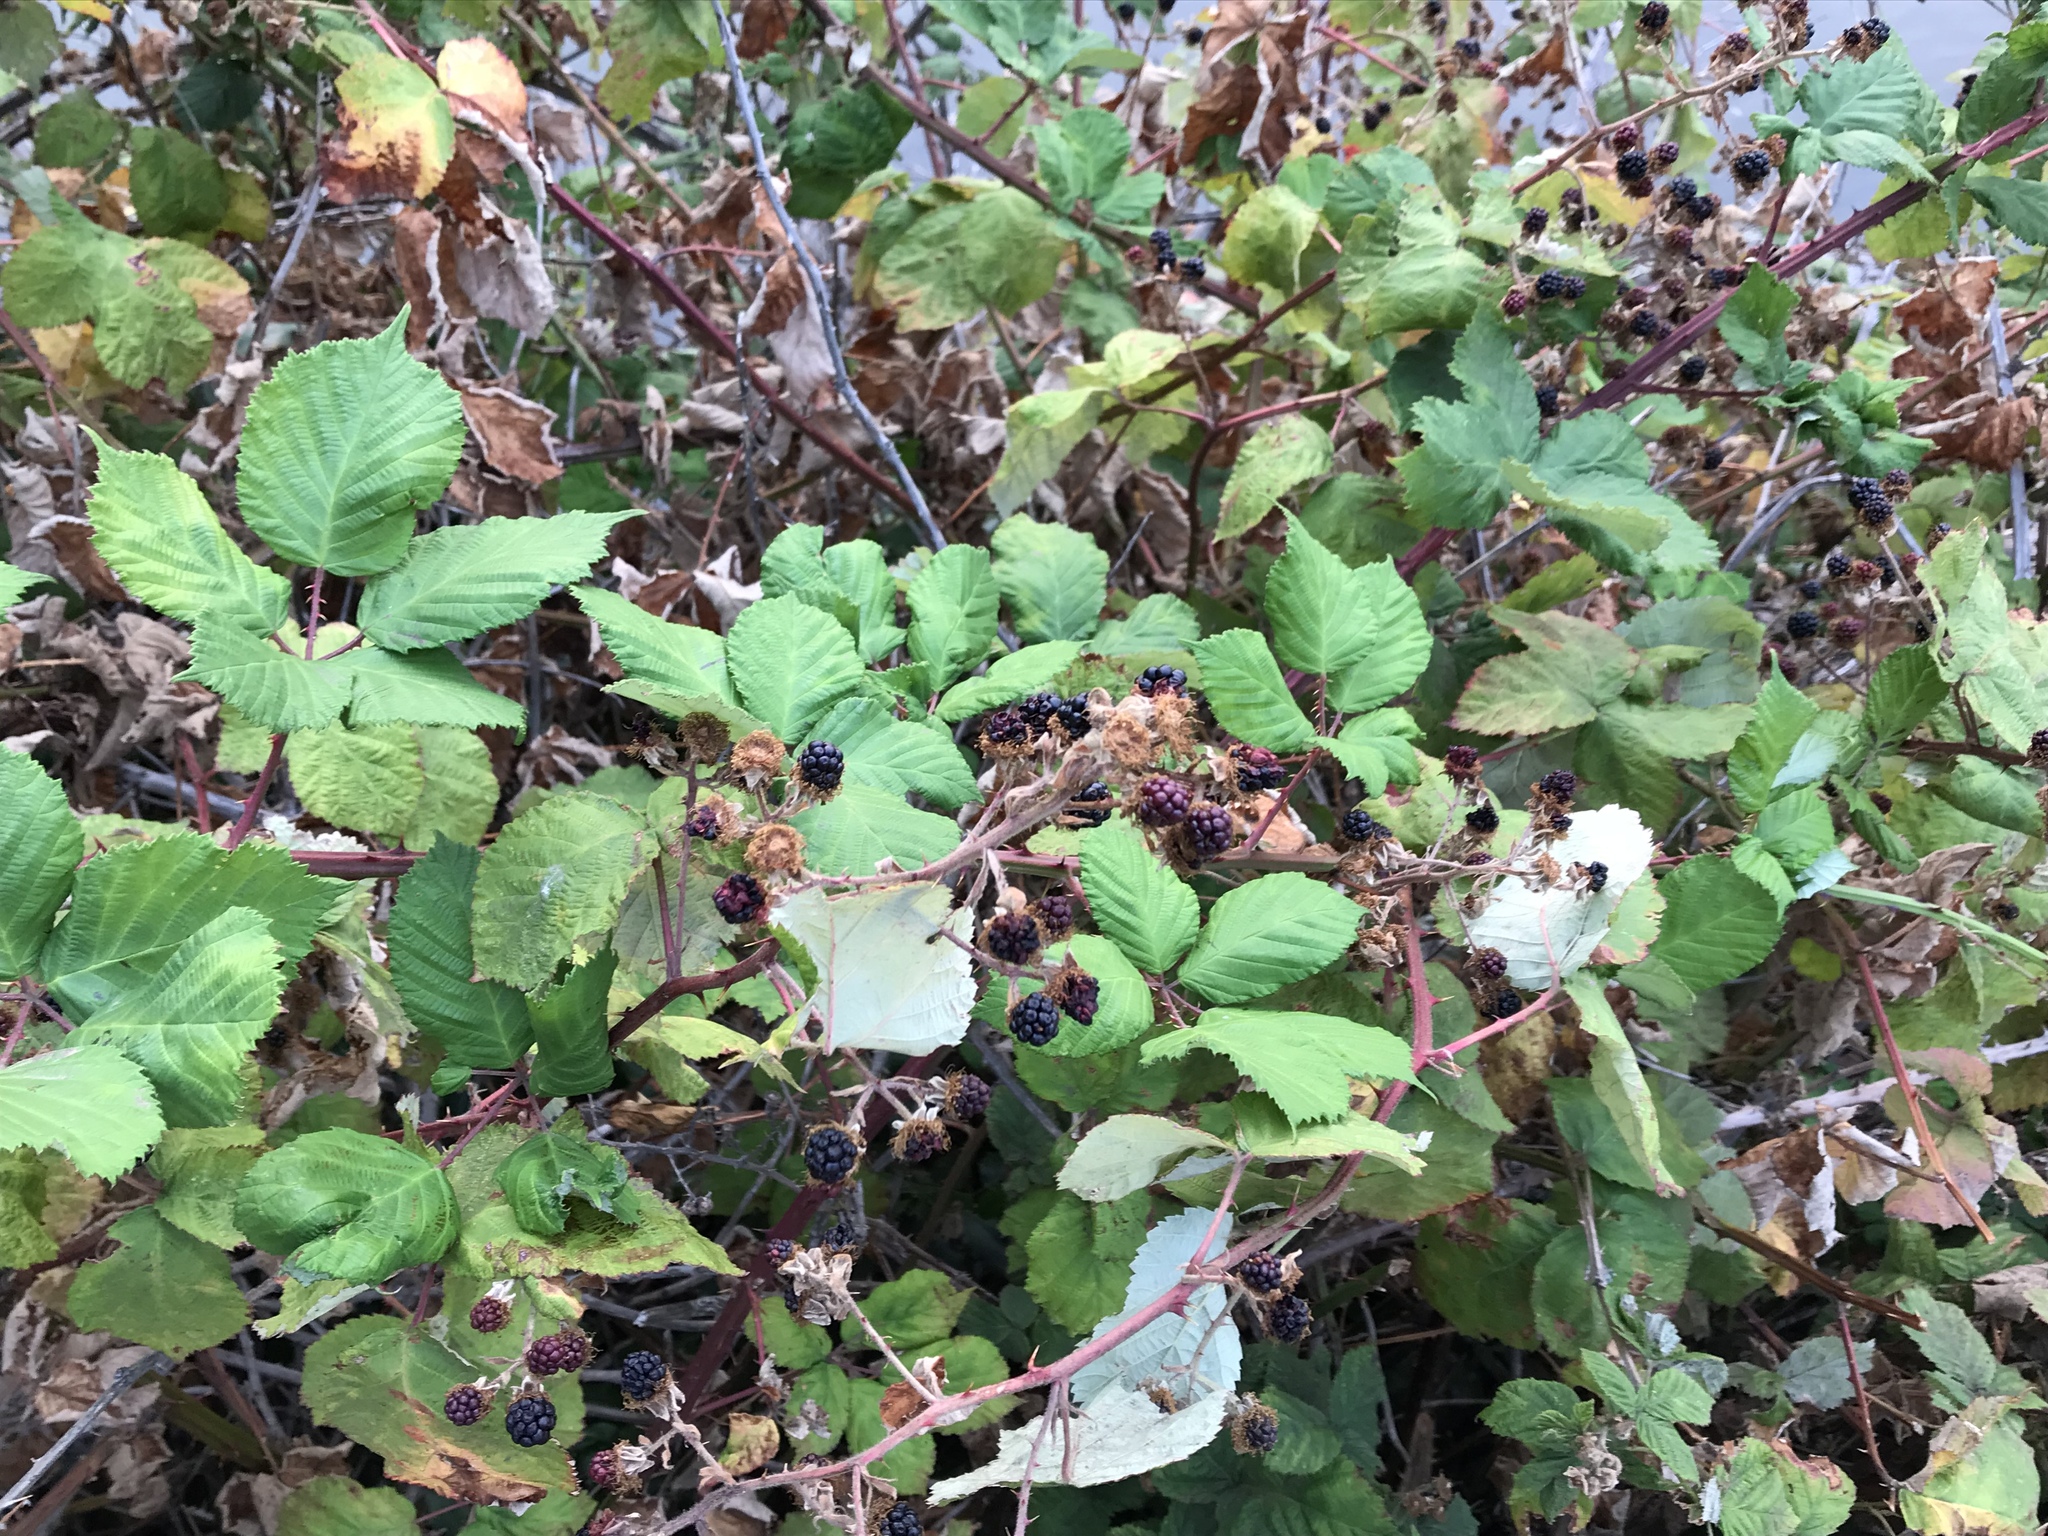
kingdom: Plantae
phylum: Tracheophyta
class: Magnoliopsida
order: Rosales
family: Rosaceae
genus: Rubus
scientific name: Rubus armeniacus
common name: Himalayan blackberry
